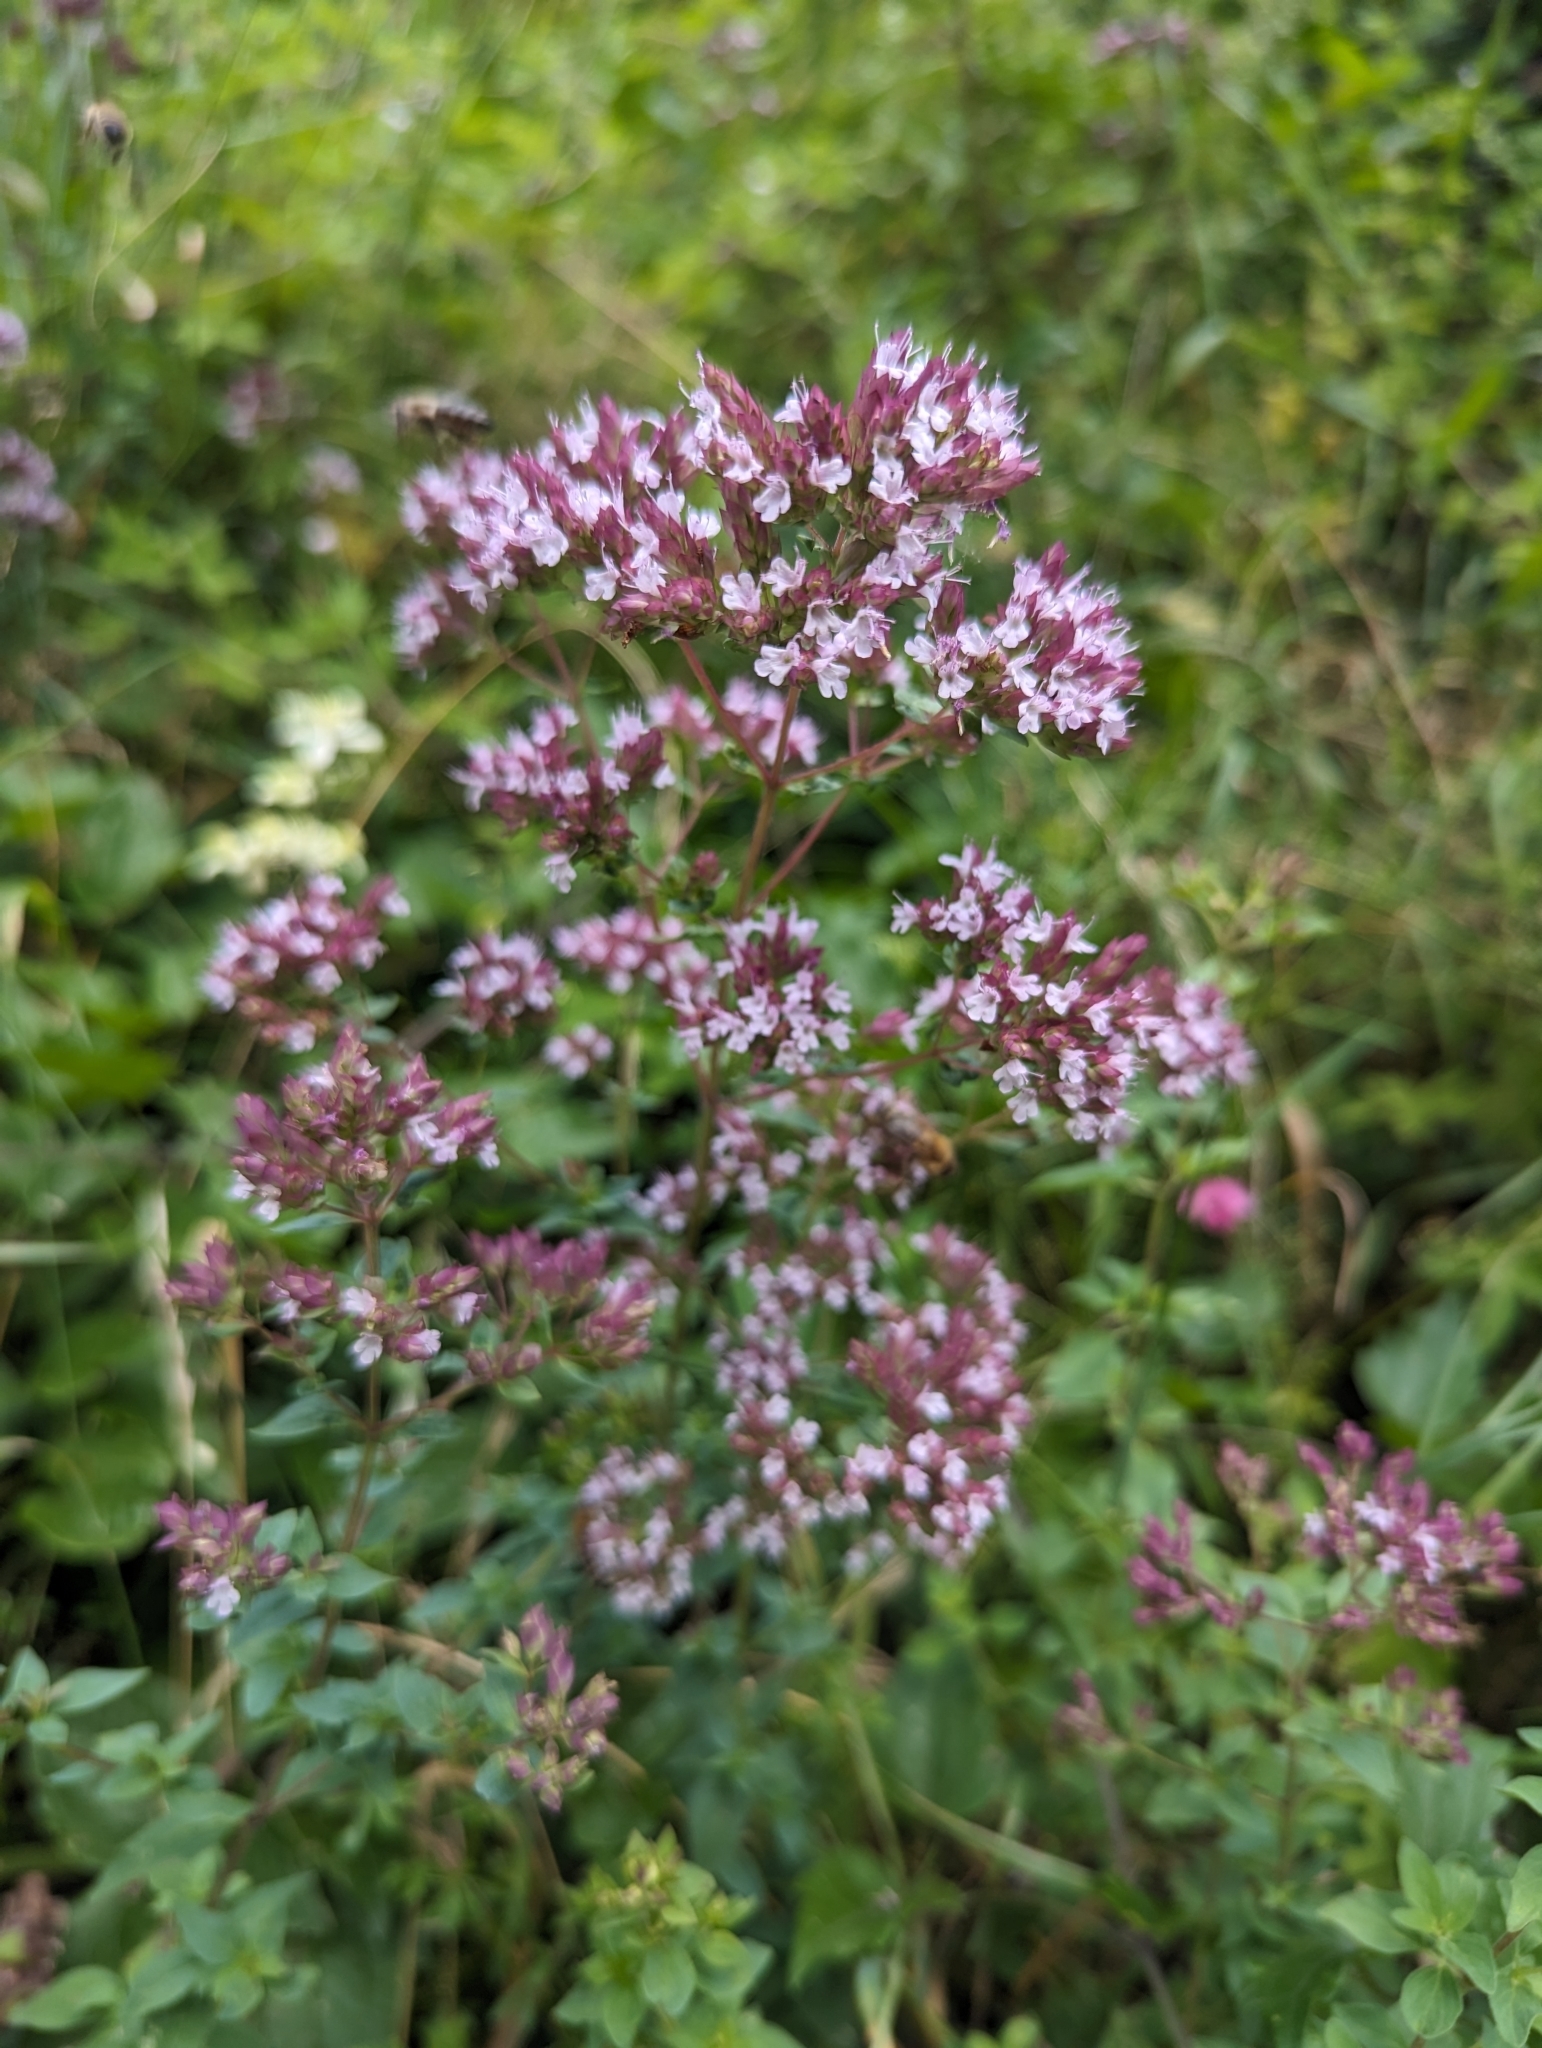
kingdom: Plantae
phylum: Tracheophyta
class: Magnoliopsida
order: Lamiales
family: Lamiaceae
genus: Origanum
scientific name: Origanum vulgare
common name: Wild marjoram
